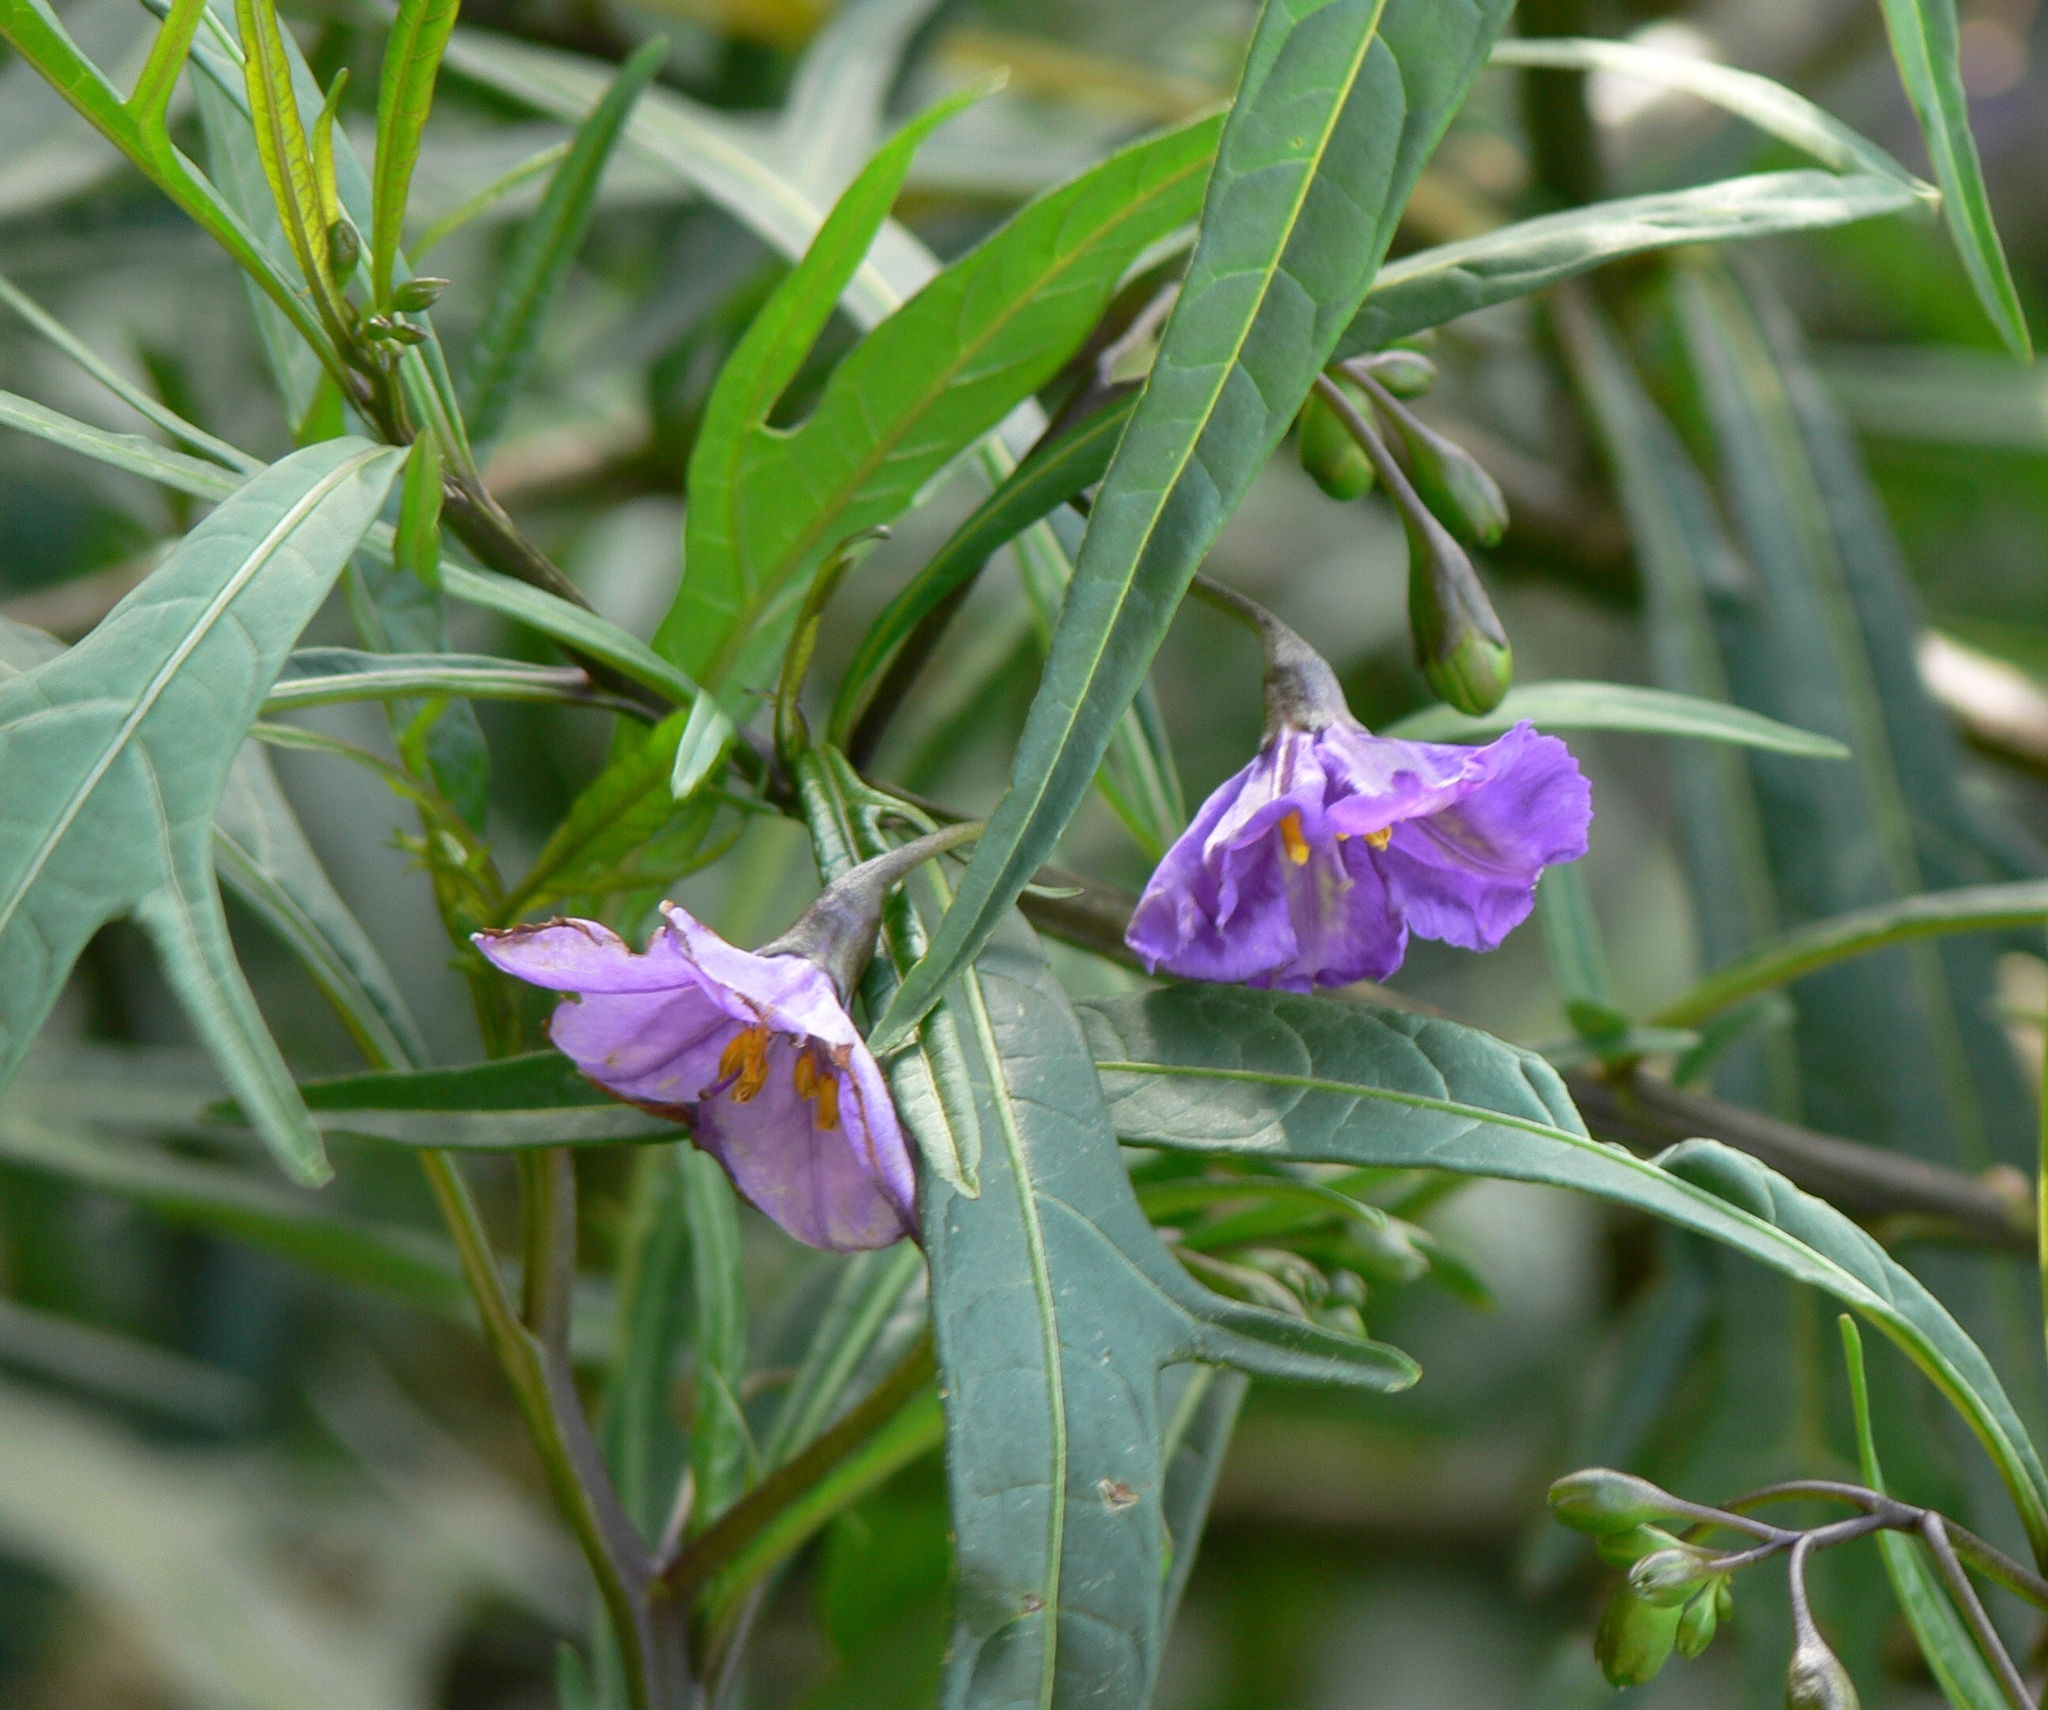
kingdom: Plantae
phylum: Tracheophyta
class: Magnoliopsida
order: Solanales
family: Solanaceae
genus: Solanum
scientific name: Solanum laciniatum
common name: Kangaroo-apple
